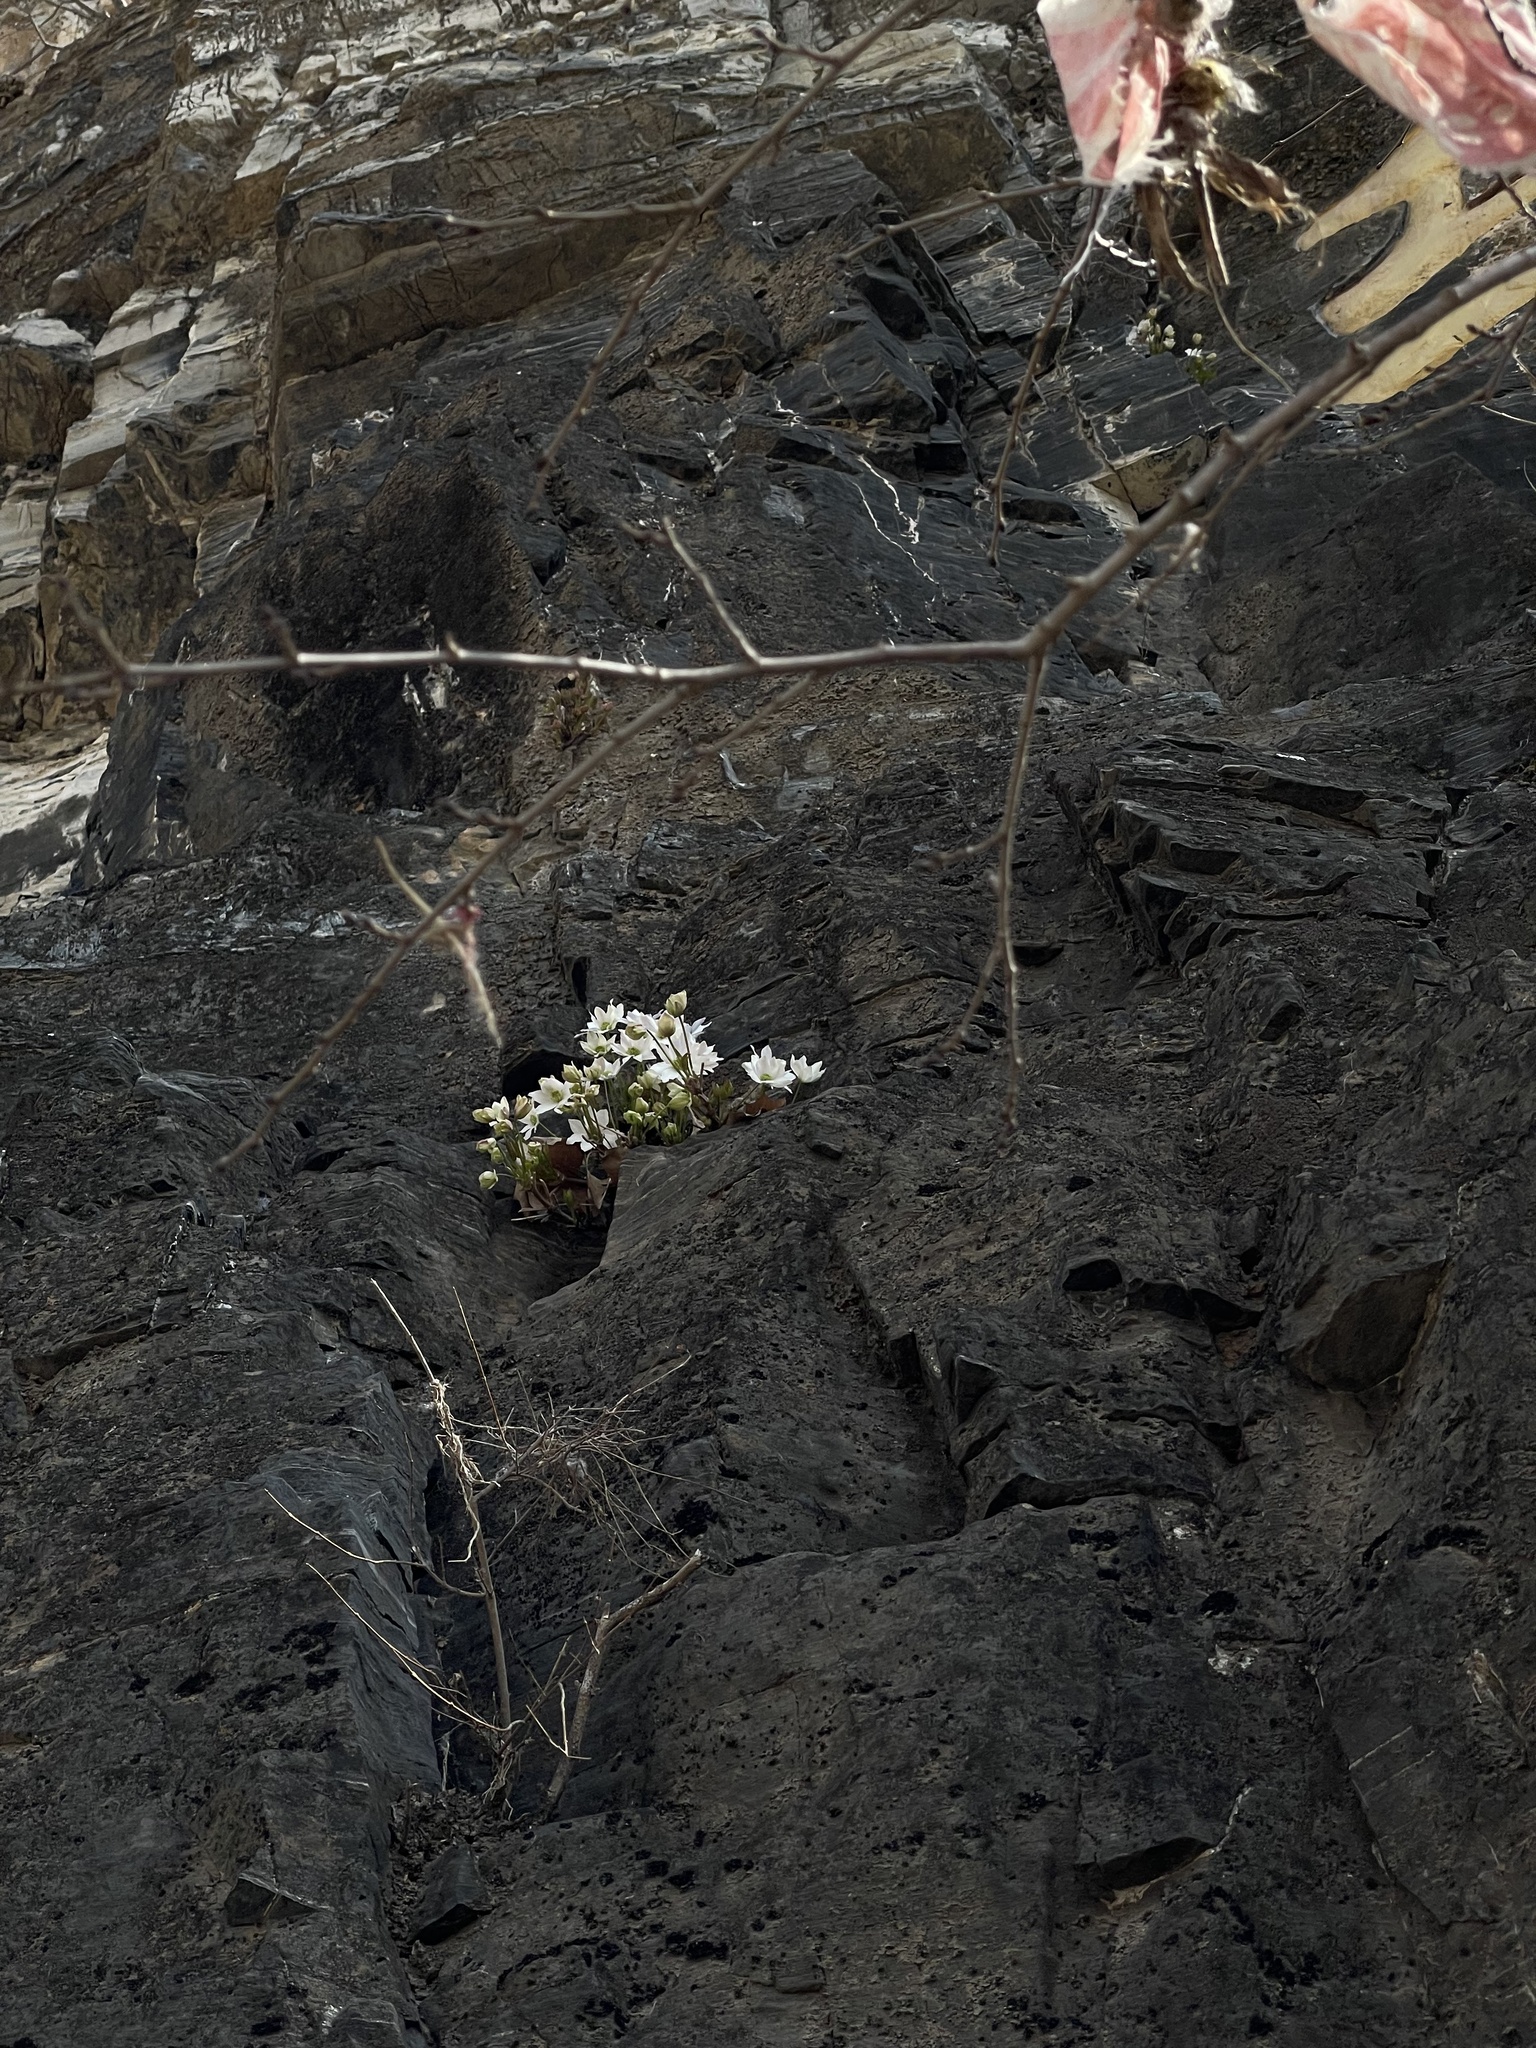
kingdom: Plantae
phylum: Tracheophyta
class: Magnoliopsida
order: Ranunculales
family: Ranunculaceae
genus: Clematis
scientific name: Clematis acerifolia
